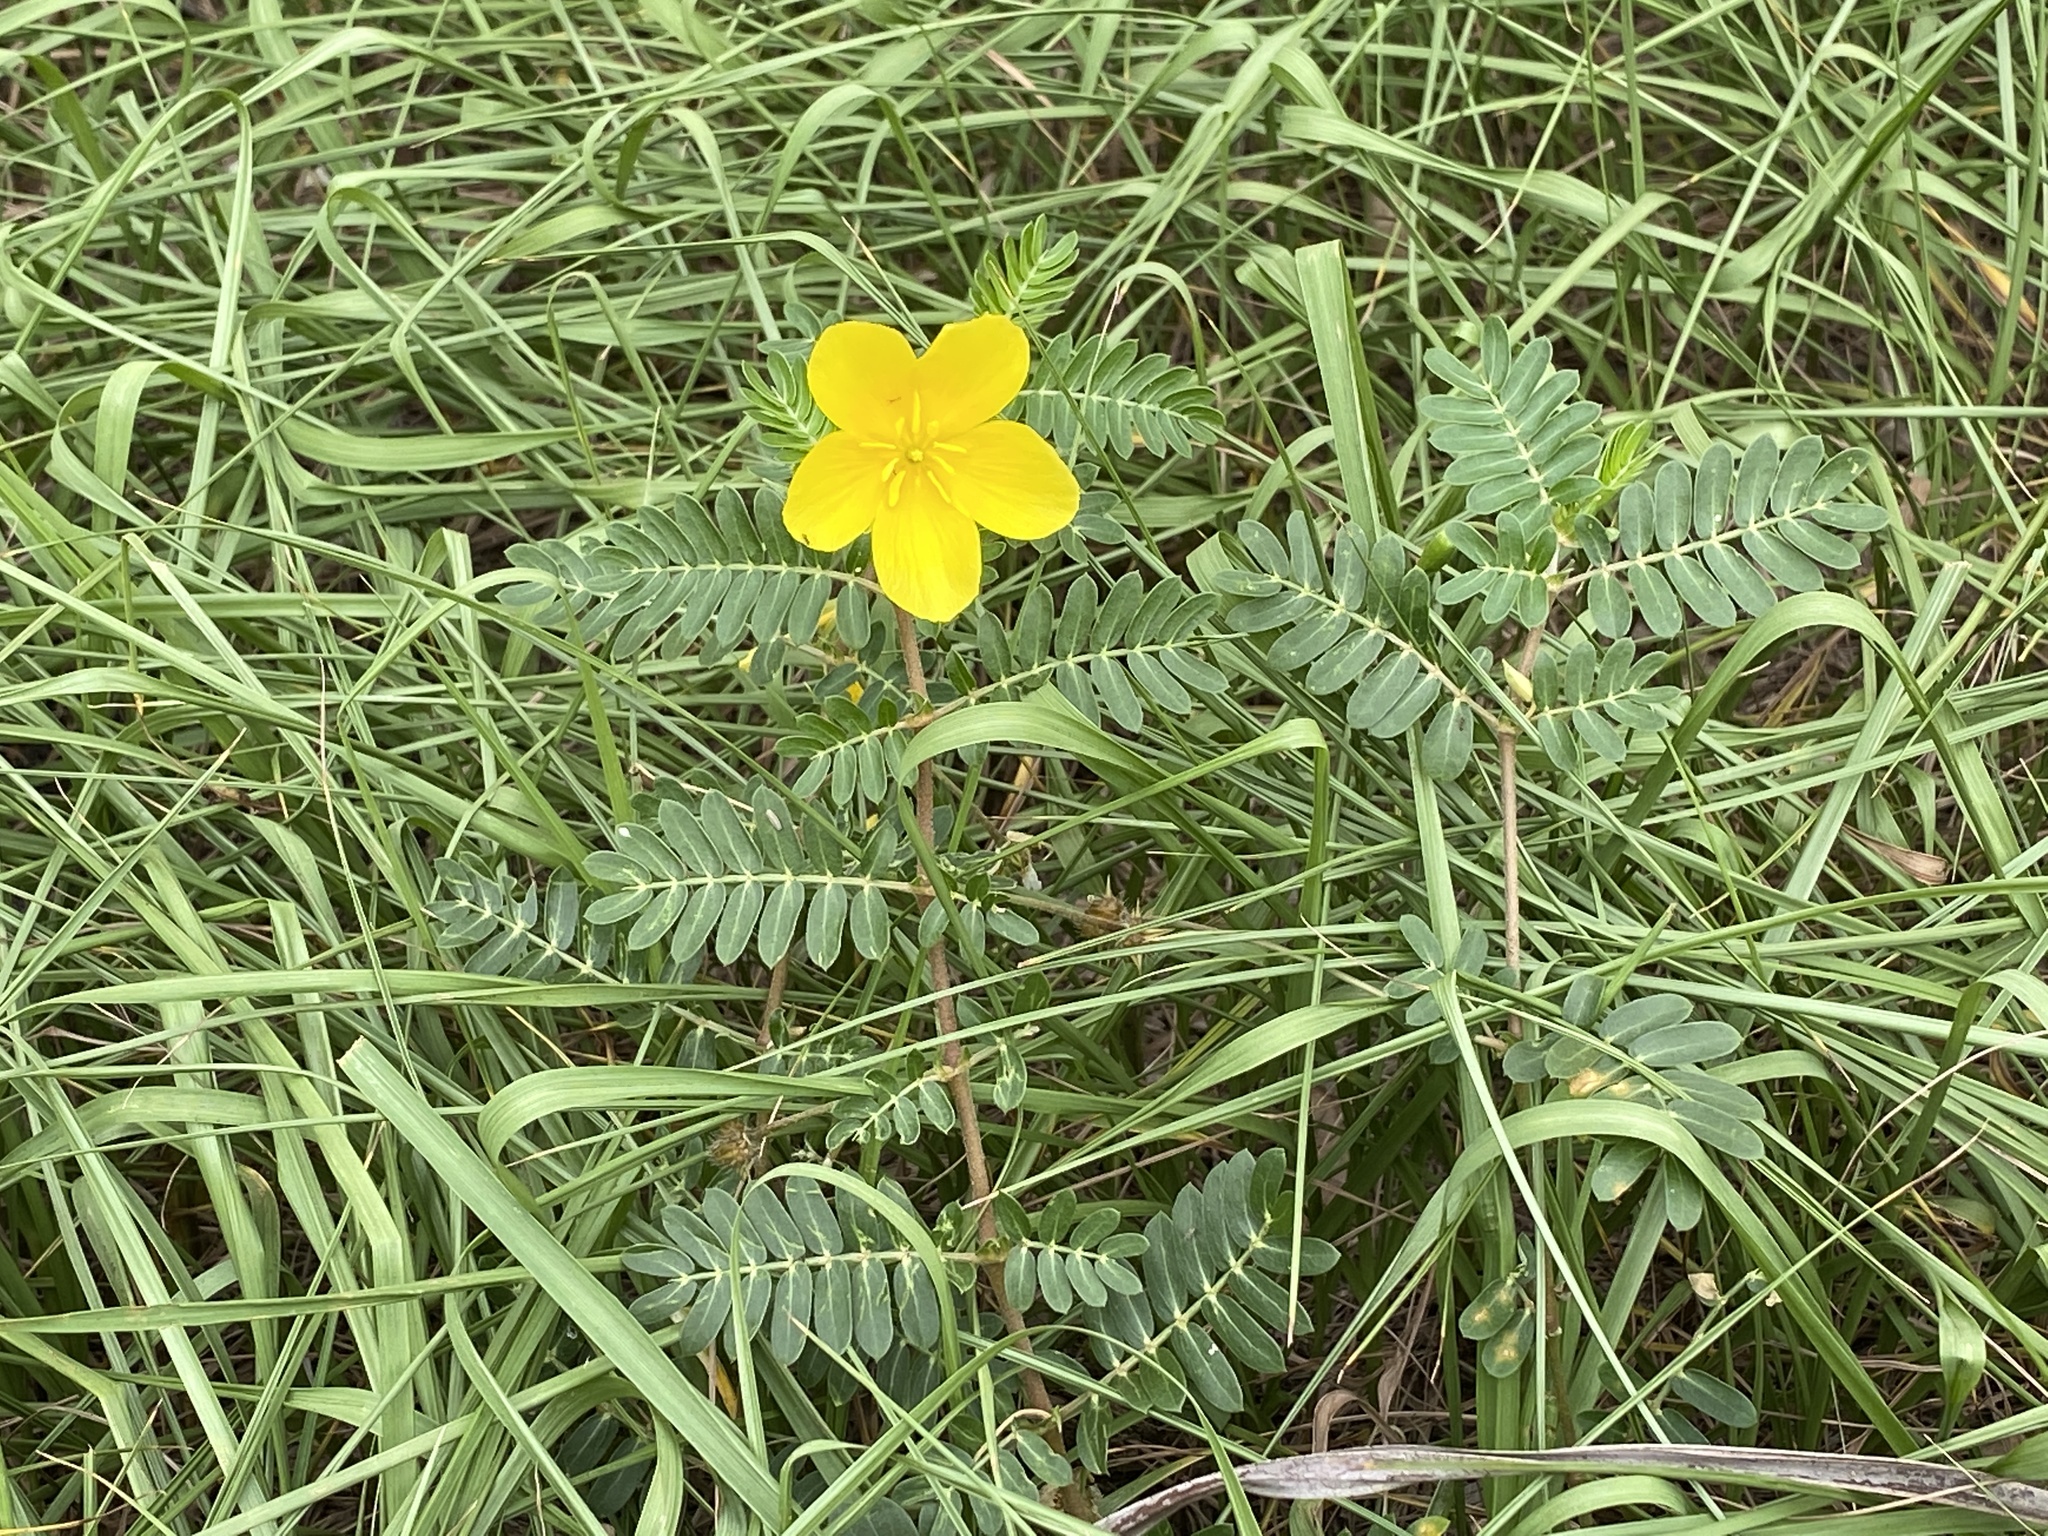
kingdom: Plantae
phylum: Tracheophyta
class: Magnoliopsida
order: Zygophyllales
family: Zygophyllaceae
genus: Tribulus
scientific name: Tribulus cistoides
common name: Jamaican feverplant
